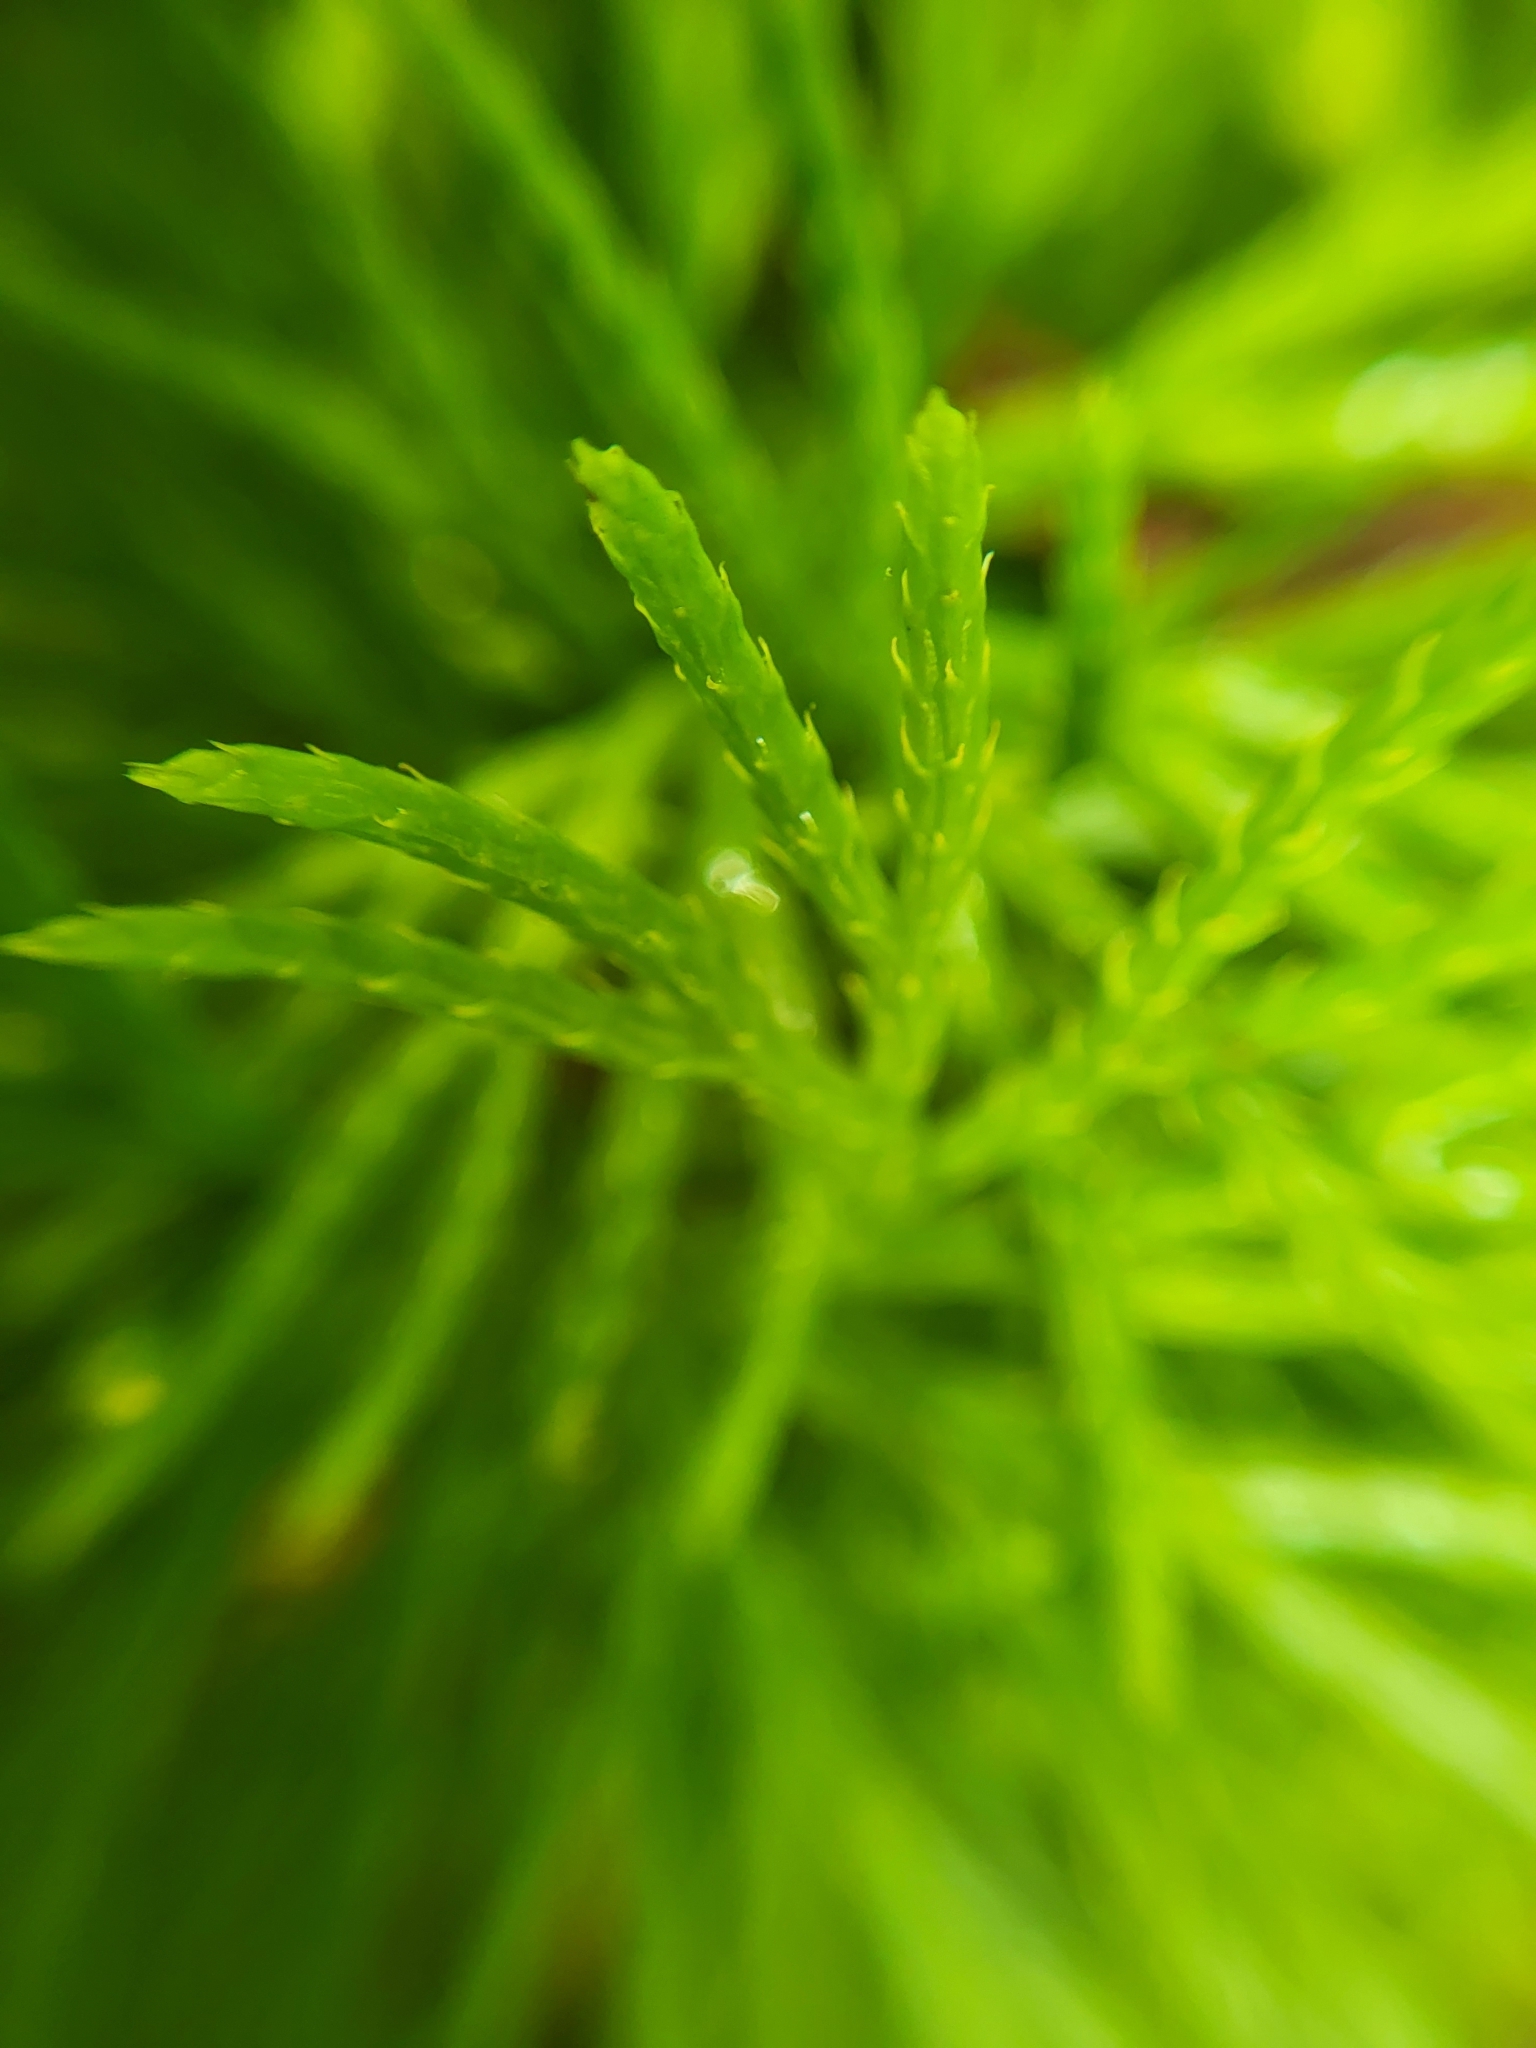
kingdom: Plantae
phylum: Tracheophyta
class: Lycopodiopsida
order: Lycopodiales
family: Lycopodiaceae
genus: Diphasiastrum
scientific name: Diphasiastrum digitatum
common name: Southern running-pine
